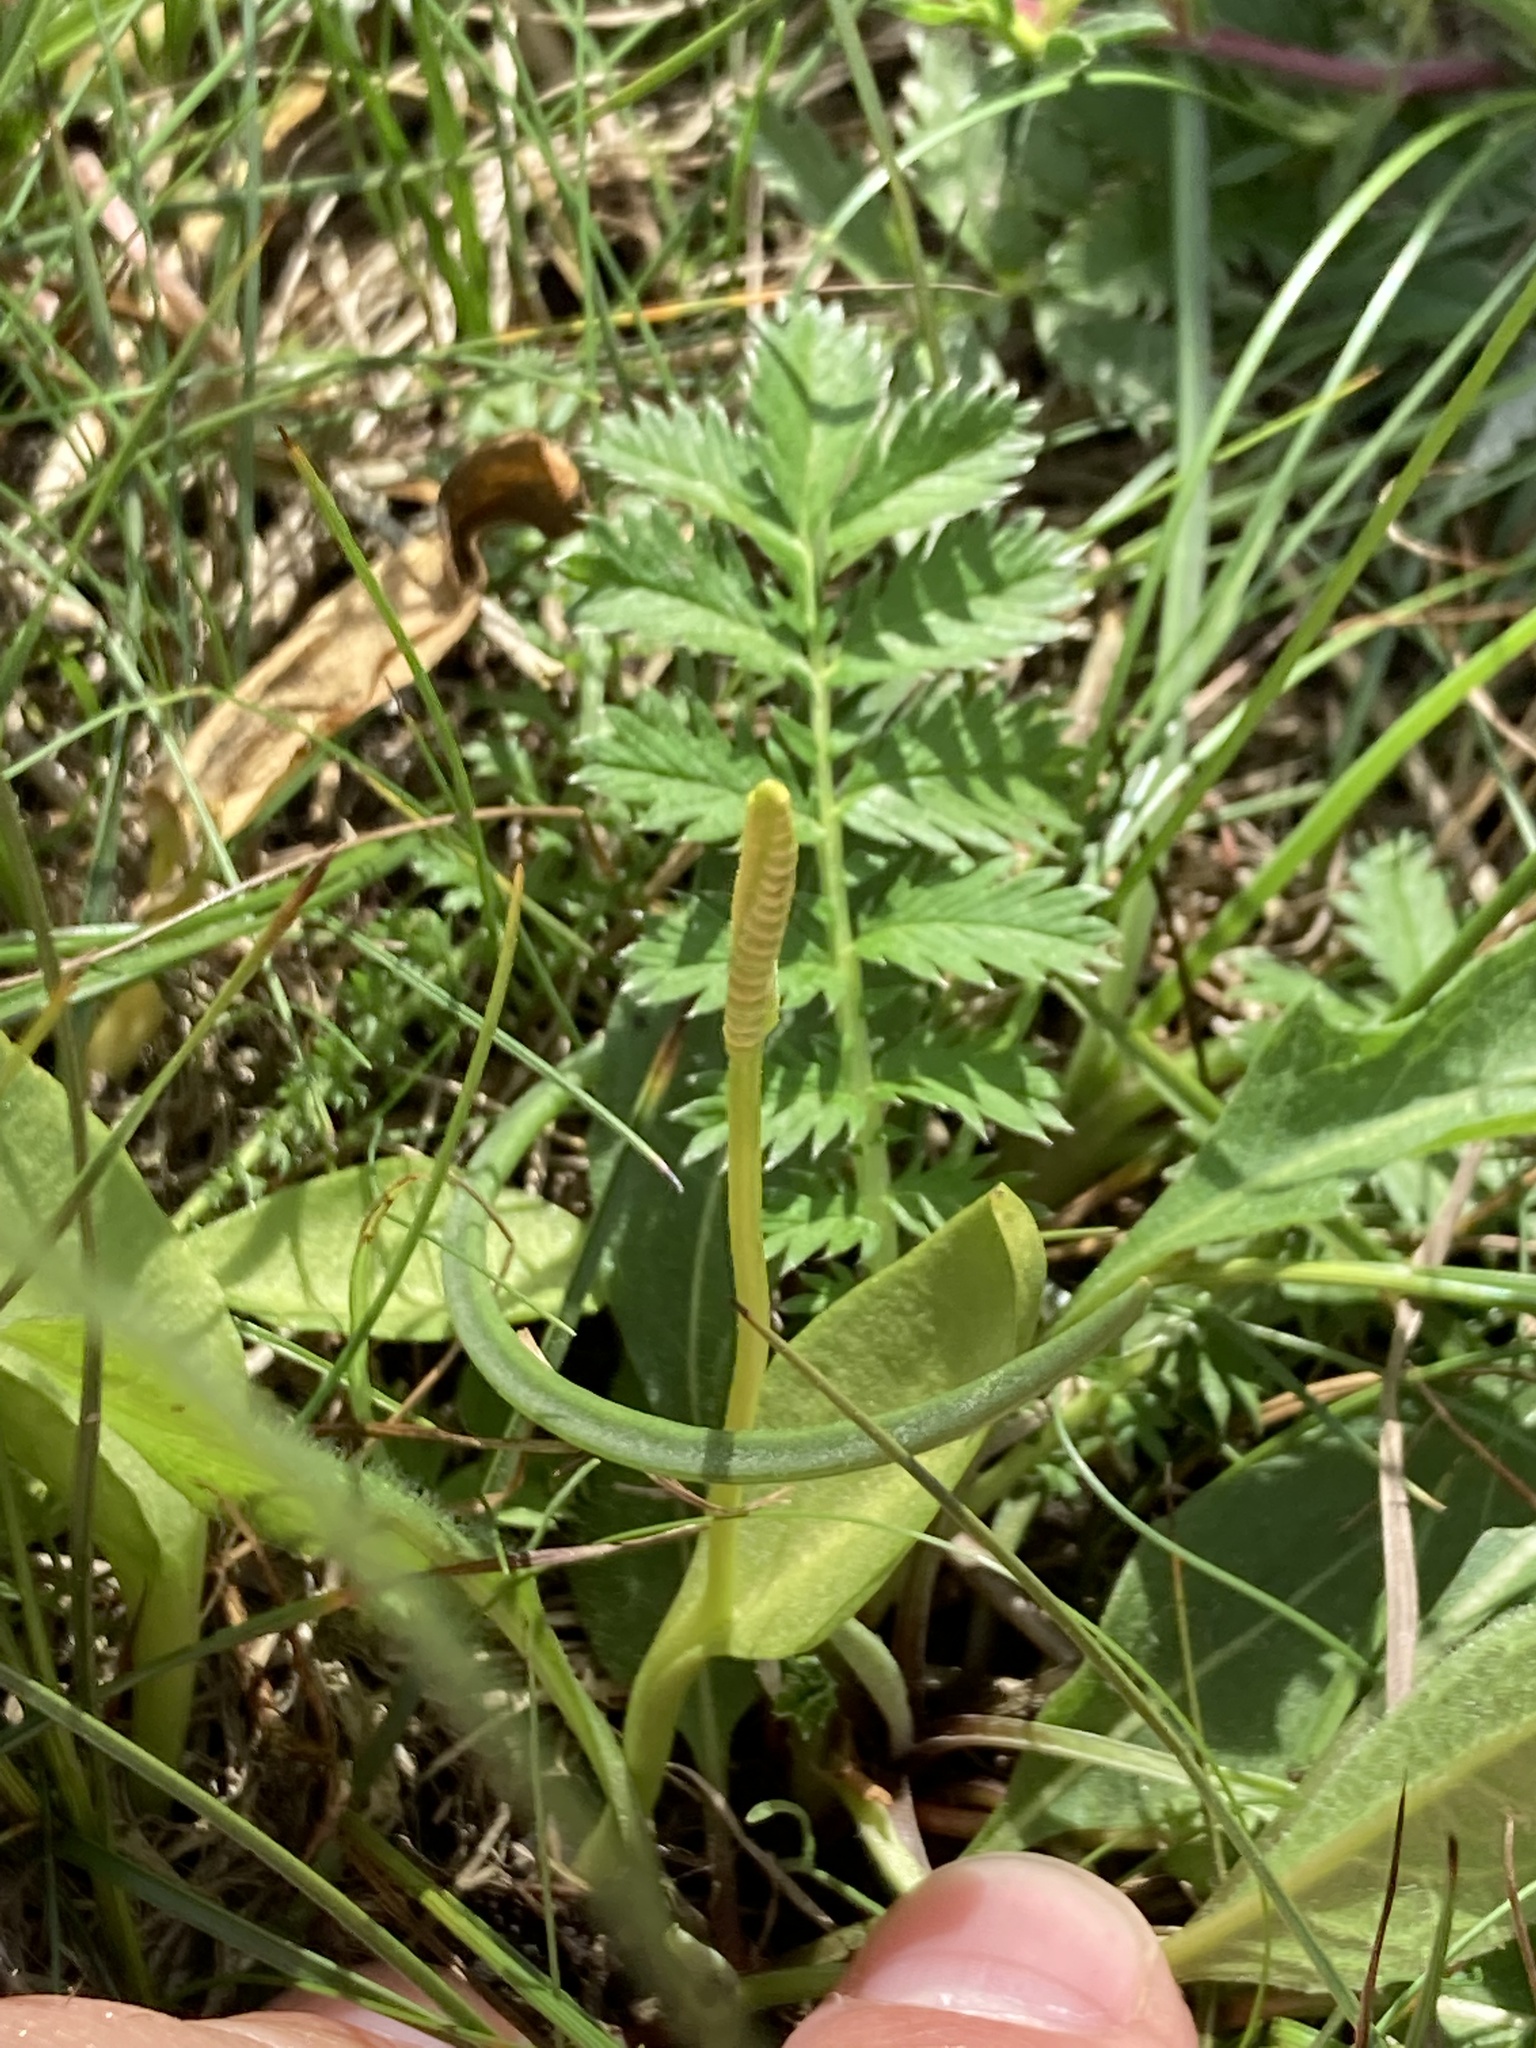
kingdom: Plantae
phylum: Tracheophyta
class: Polypodiopsida
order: Ophioglossales
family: Ophioglossaceae
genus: Ophioglossum
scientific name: Ophioglossum vulgatum
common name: Adder's-tongue
